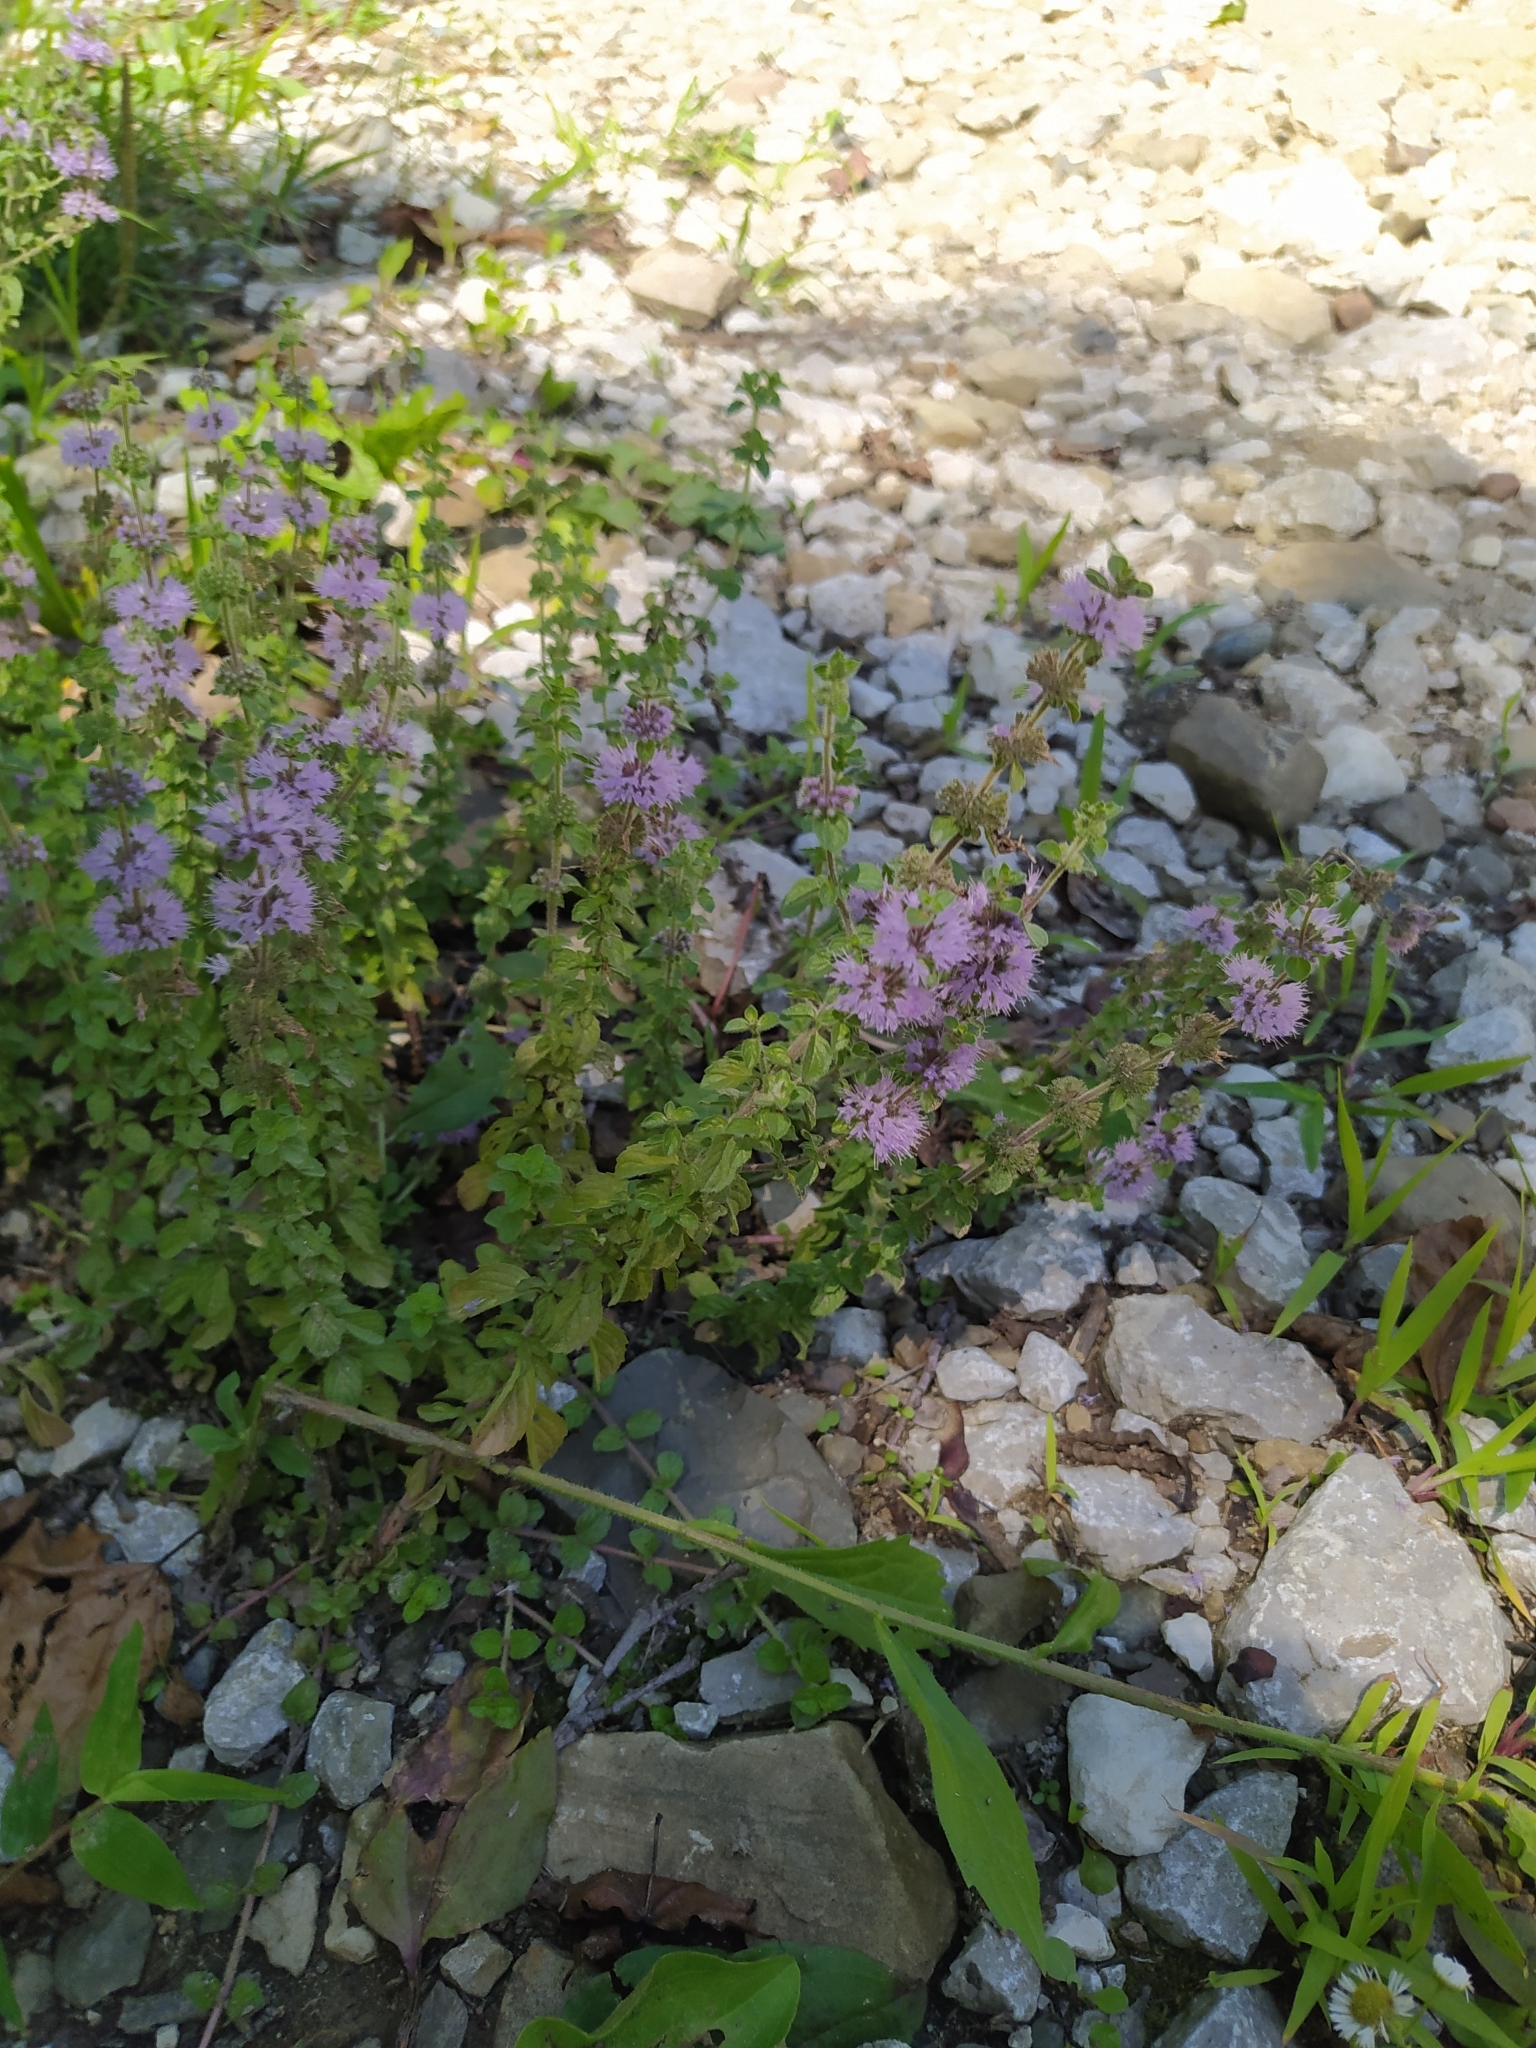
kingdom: Plantae
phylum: Tracheophyta
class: Magnoliopsida
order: Lamiales
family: Lamiaceae
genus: Mentha
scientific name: Mentha pulegium
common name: Pennyroyal
